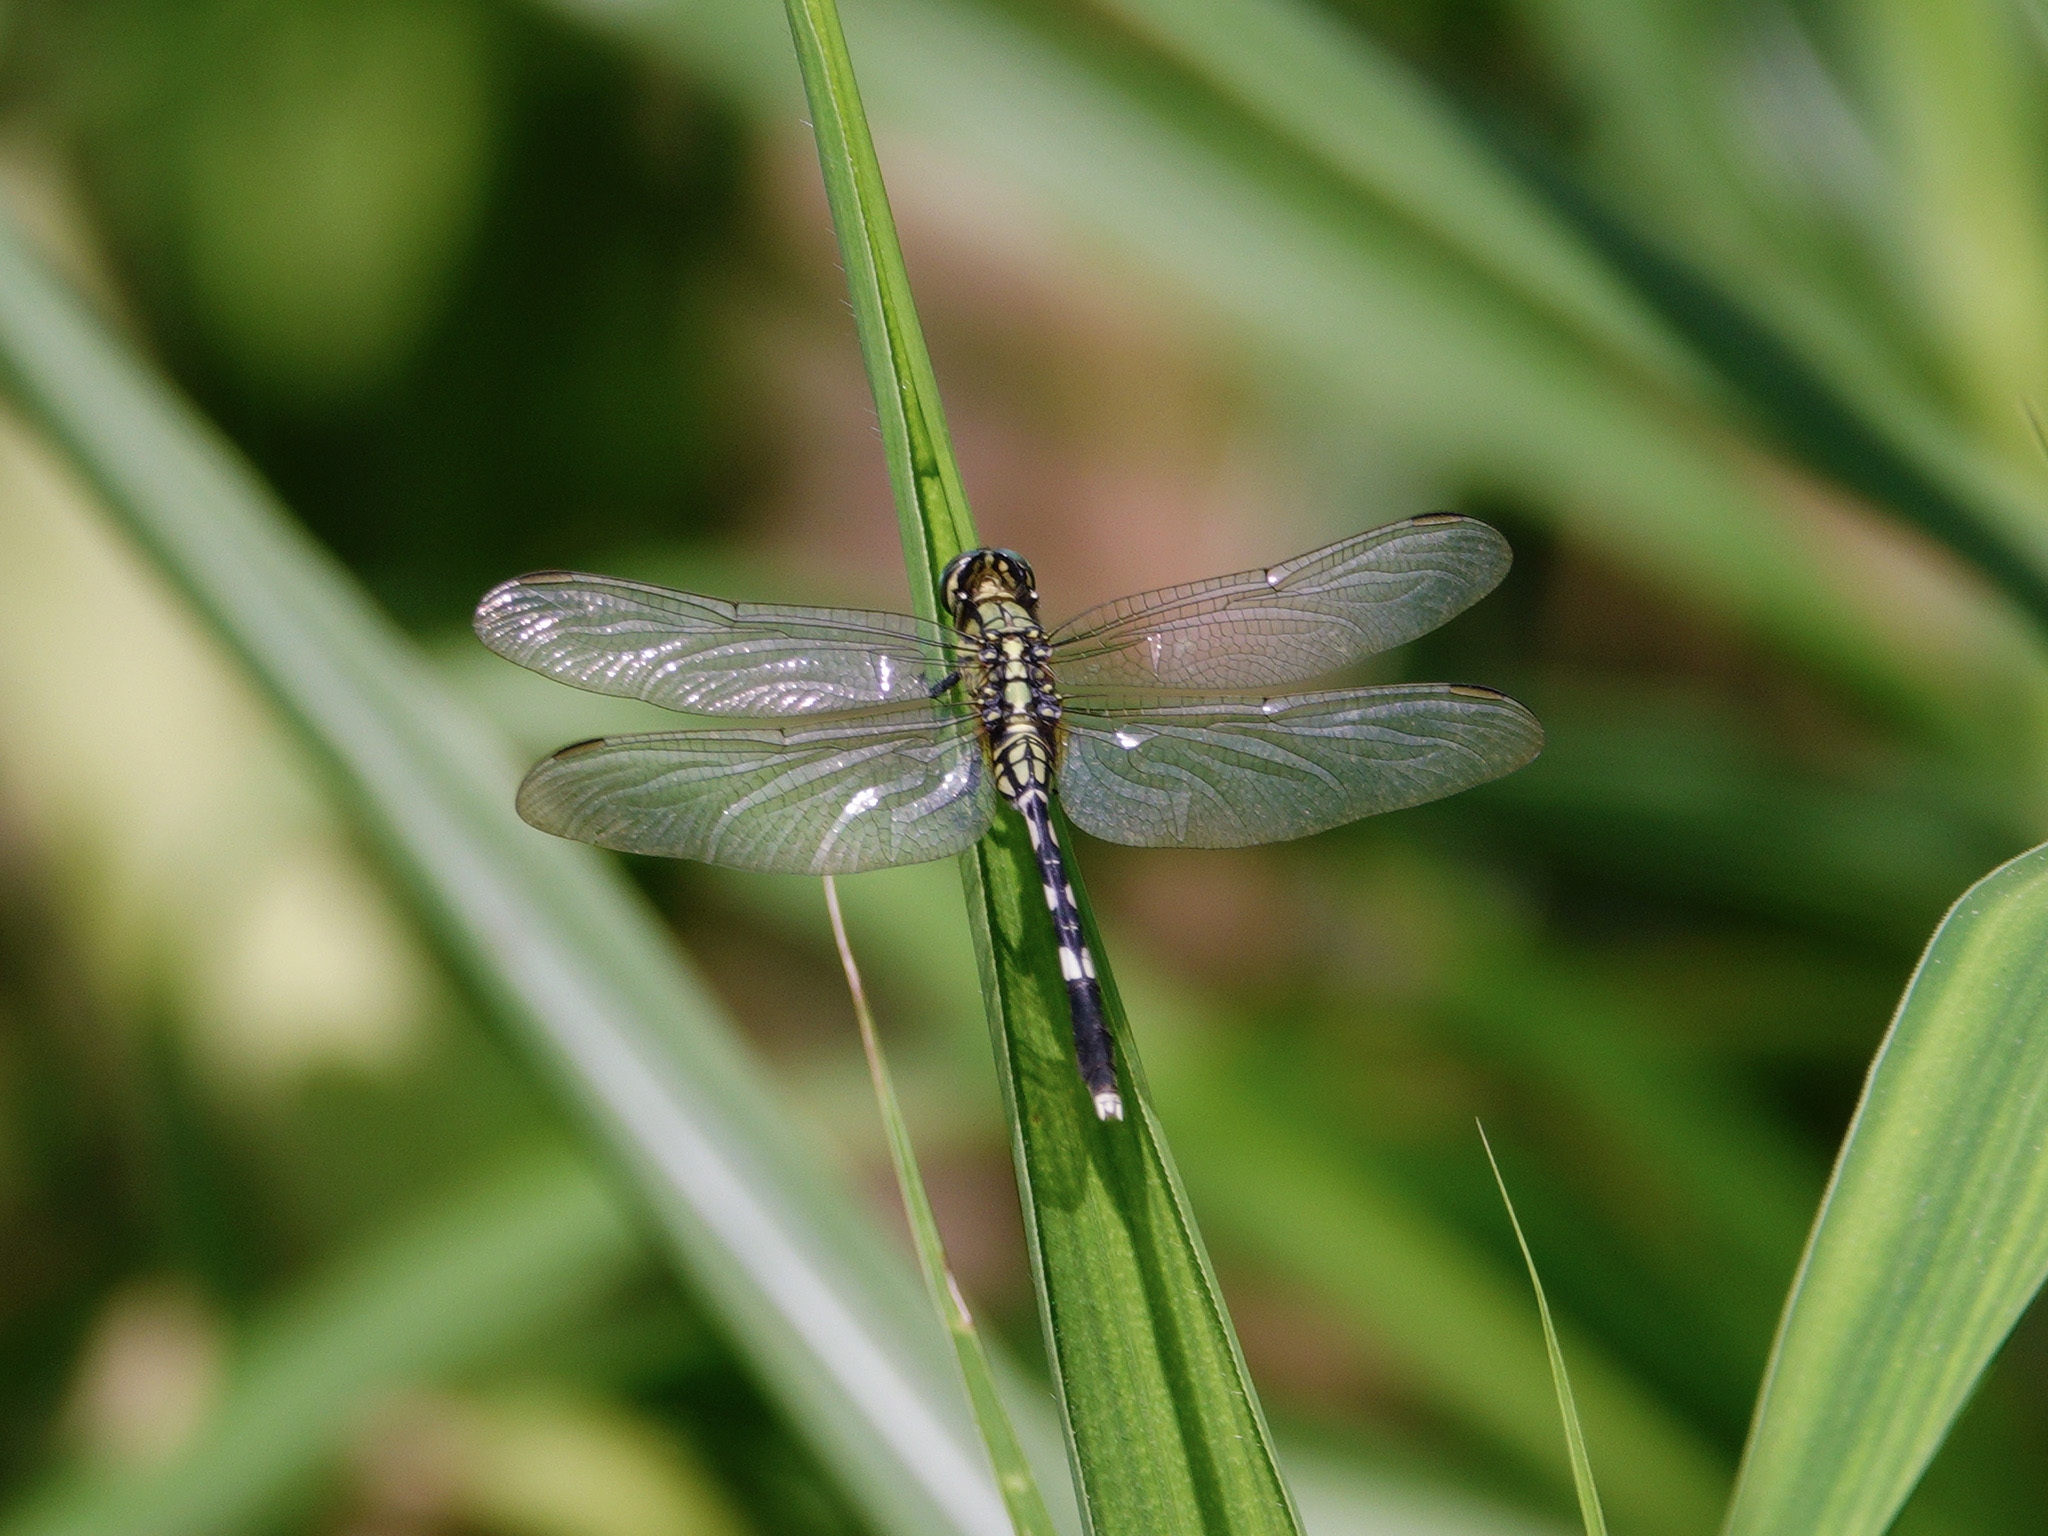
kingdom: Animalia
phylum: Arthropoda
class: Insecta
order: Odonata
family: Libellulidae
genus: Orthetrum
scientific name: Orthetrum sabina
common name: Slender skimmer
